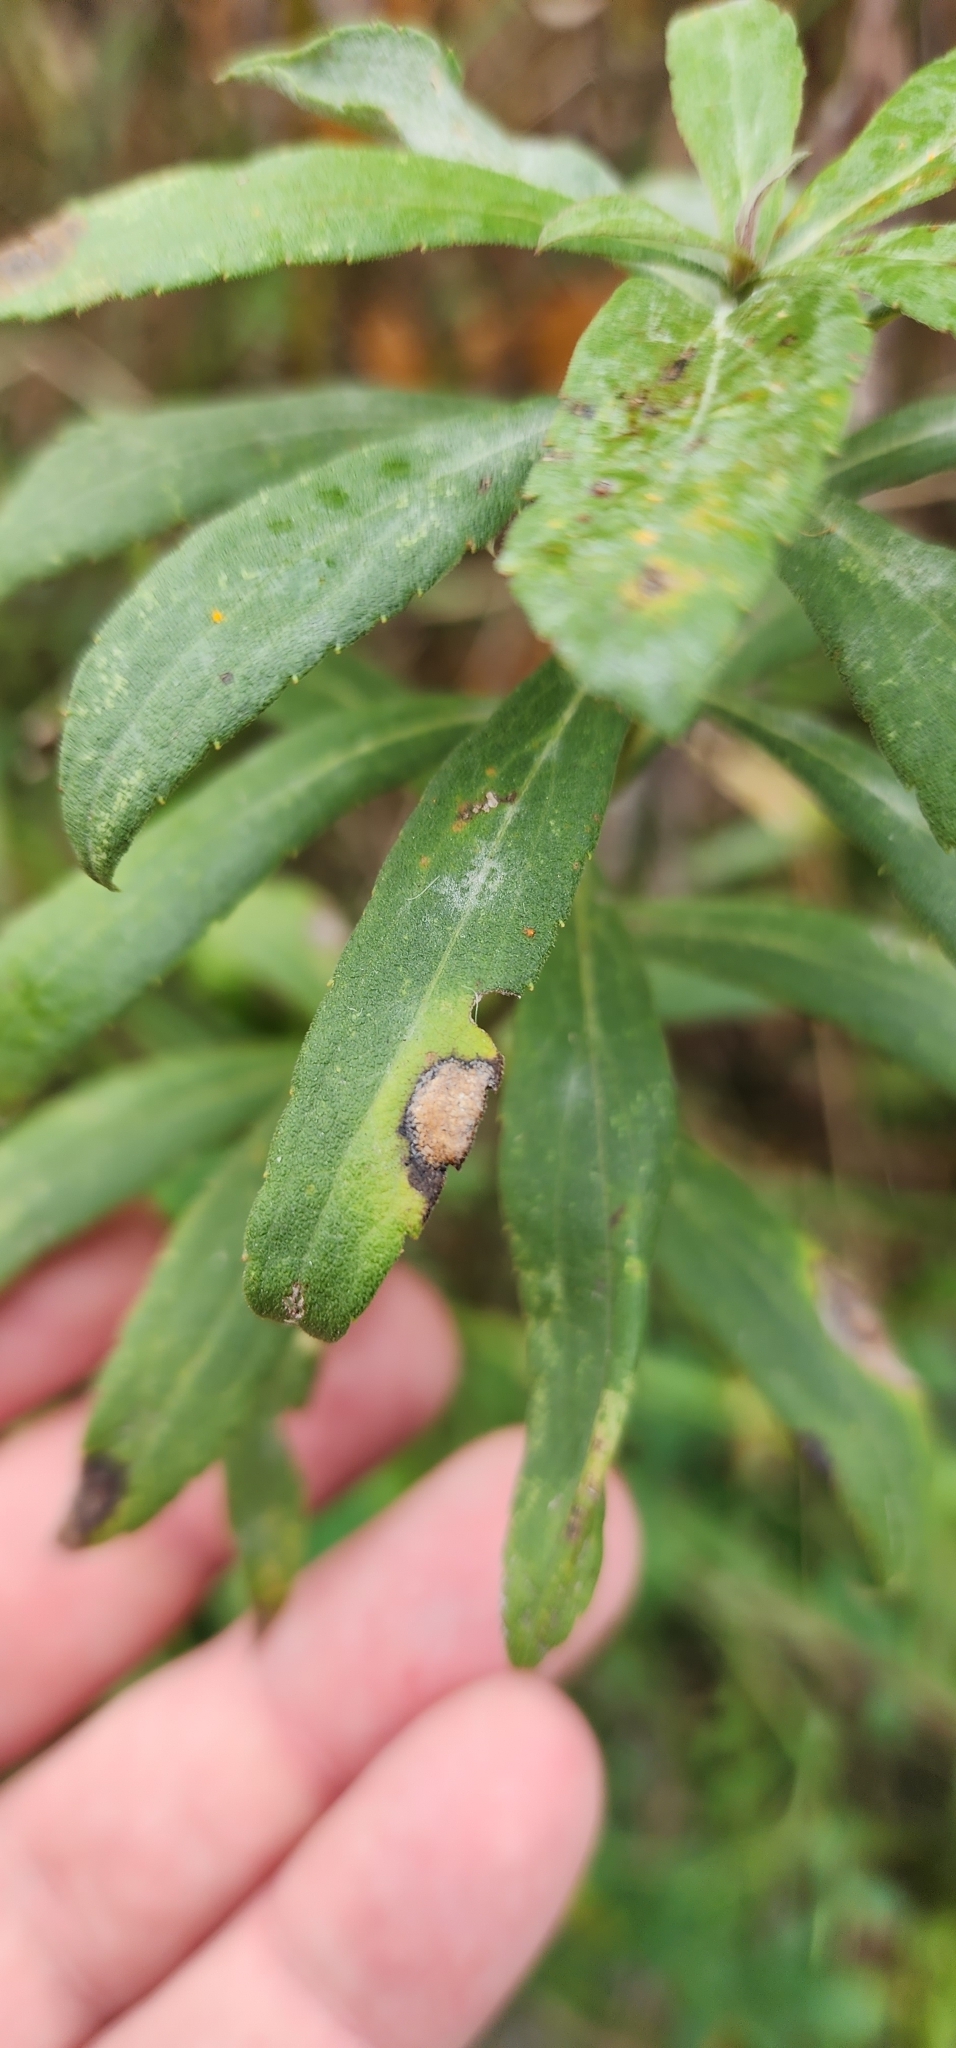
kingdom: Animalia
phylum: Arthropoda
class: Insecta
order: Diptera
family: Cecidomyiidae
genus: Asteromyia
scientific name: Asteromyia carbonifera
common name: Carbonifera goldenrod gall midge
